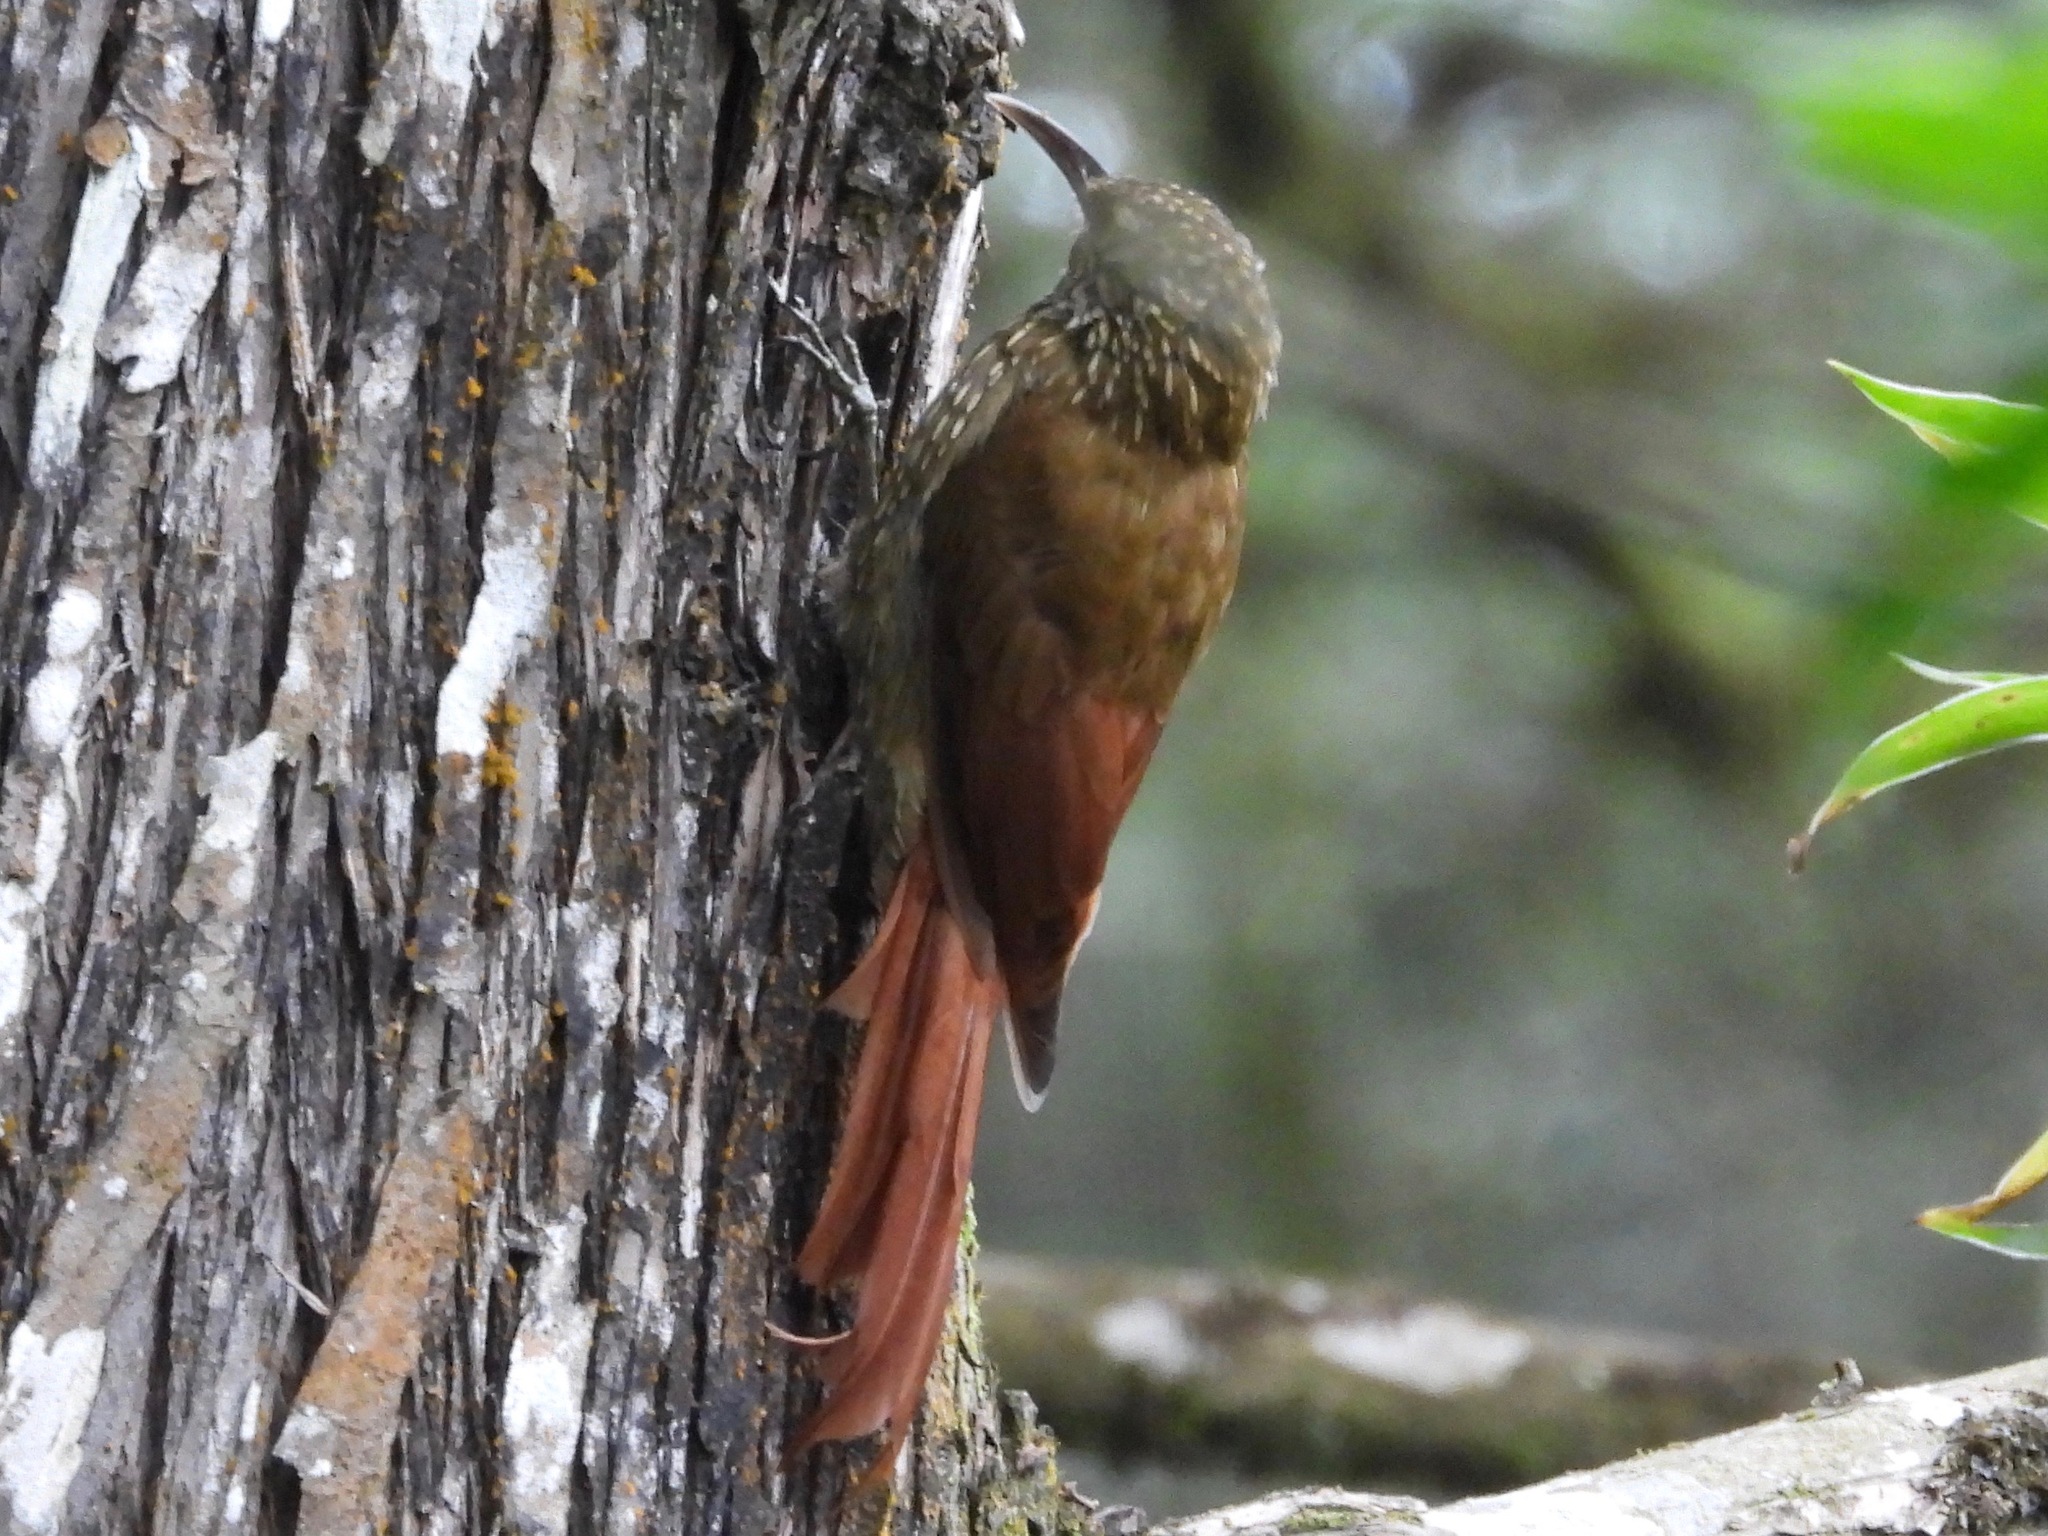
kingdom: Animalia
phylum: Chordata
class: Aves
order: Passeriformes
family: Furnariidae
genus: Lepidocolaptes
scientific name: Lepidocolaptes affinis
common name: Spot-crowned woodcreeper
